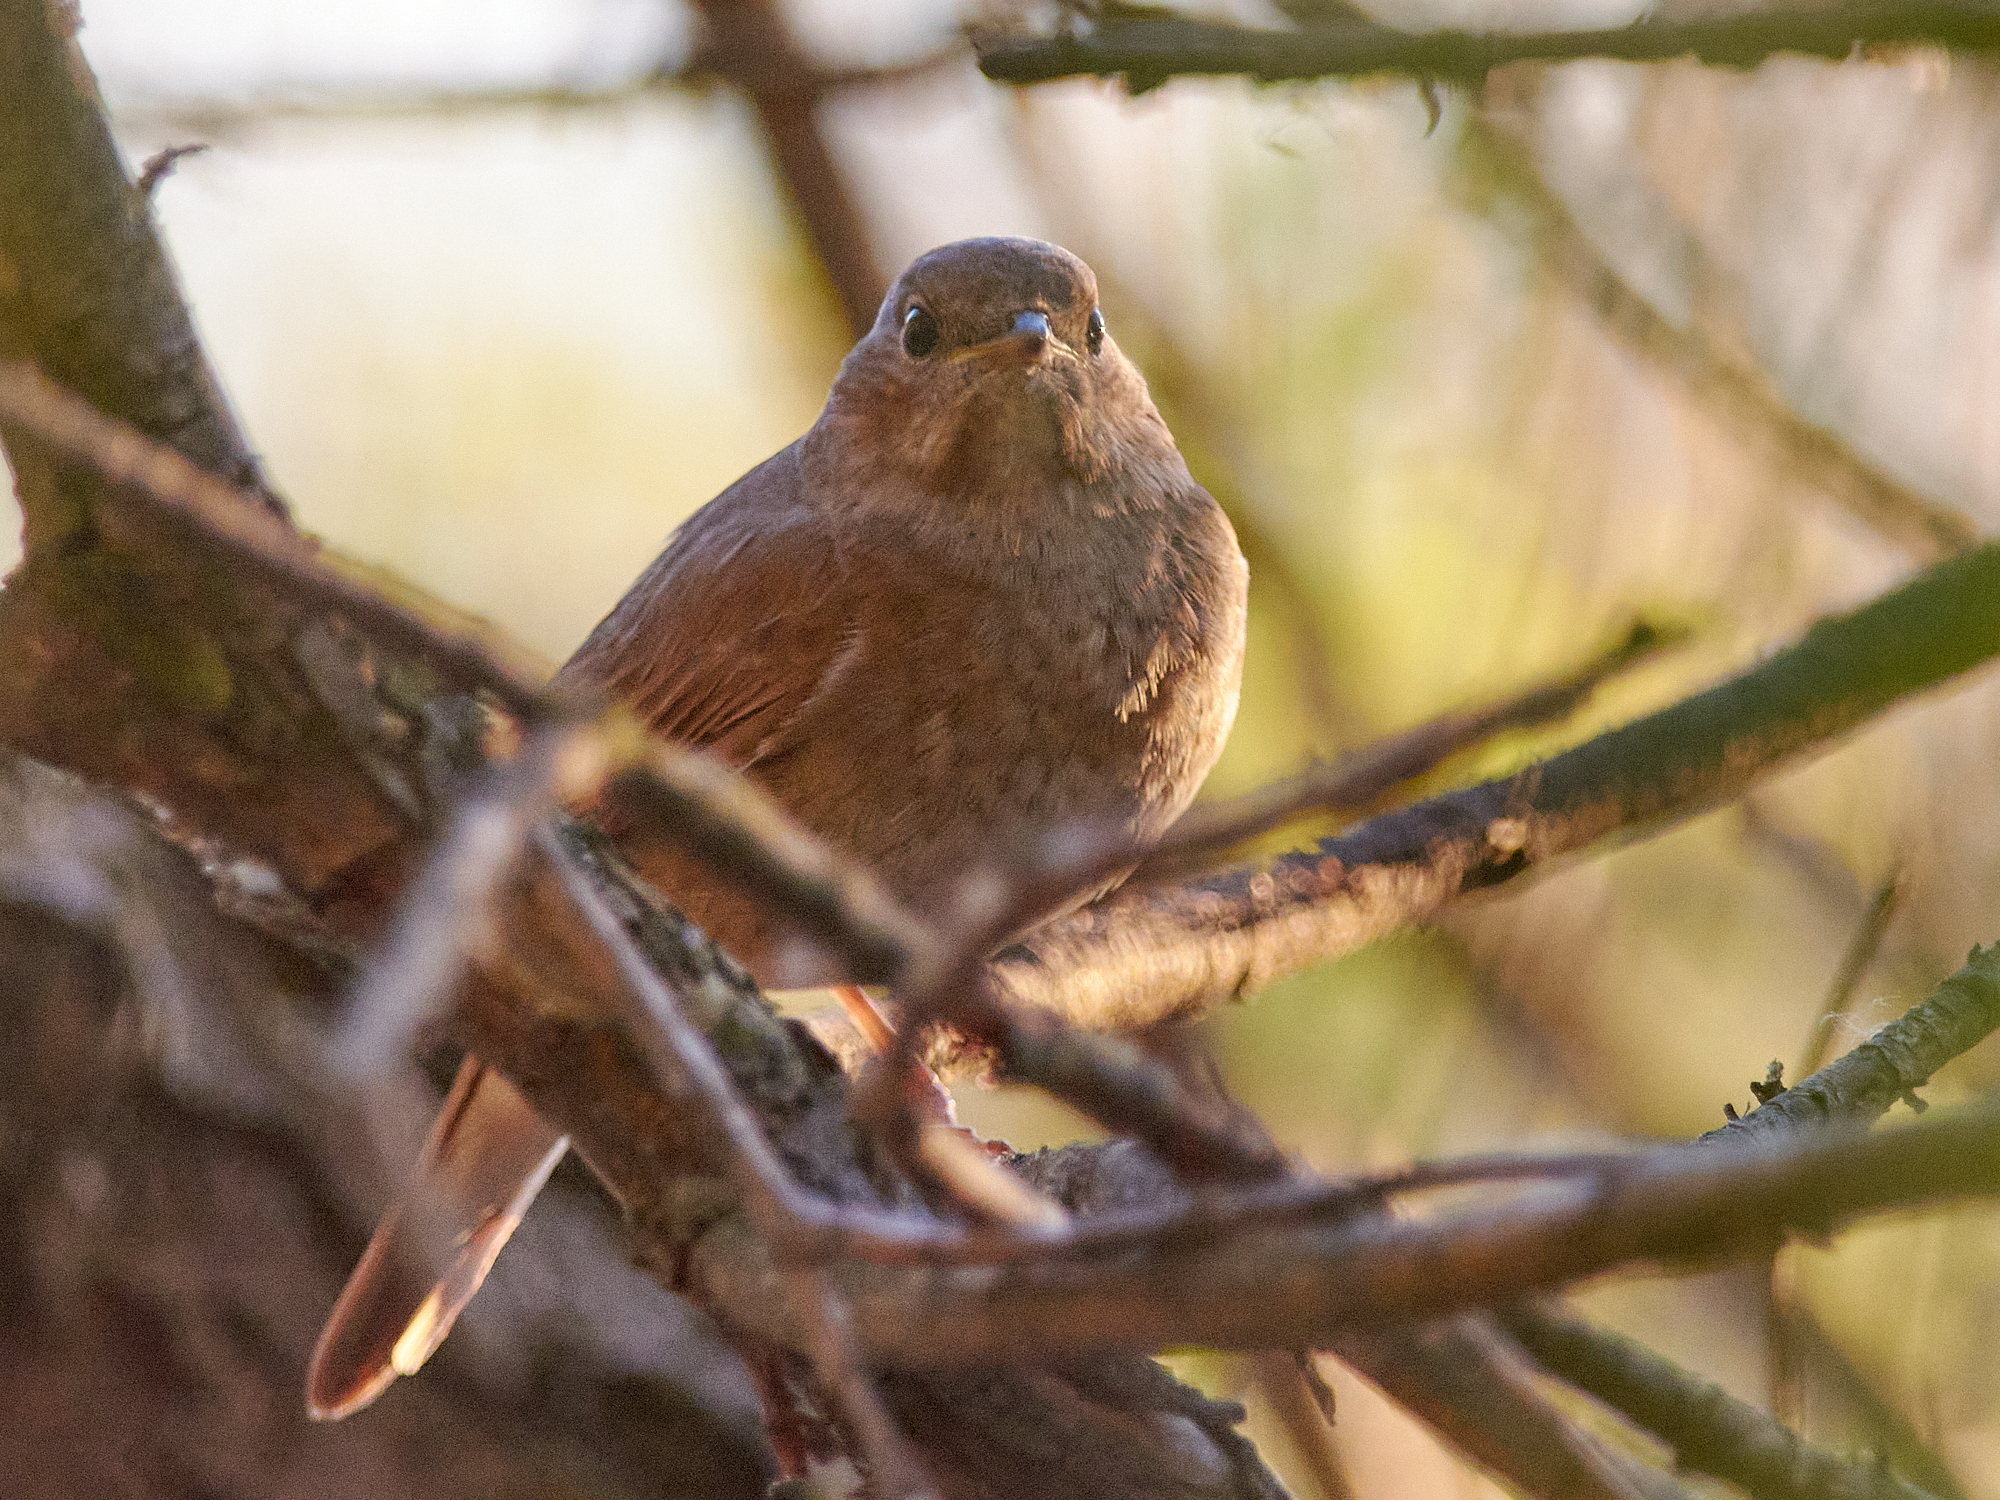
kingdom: Animalia
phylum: Chordata
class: Aves
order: Passeriformes
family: Muscicapidae
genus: Luscinia
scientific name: Luscinia luscinia
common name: Thrush nightingale
